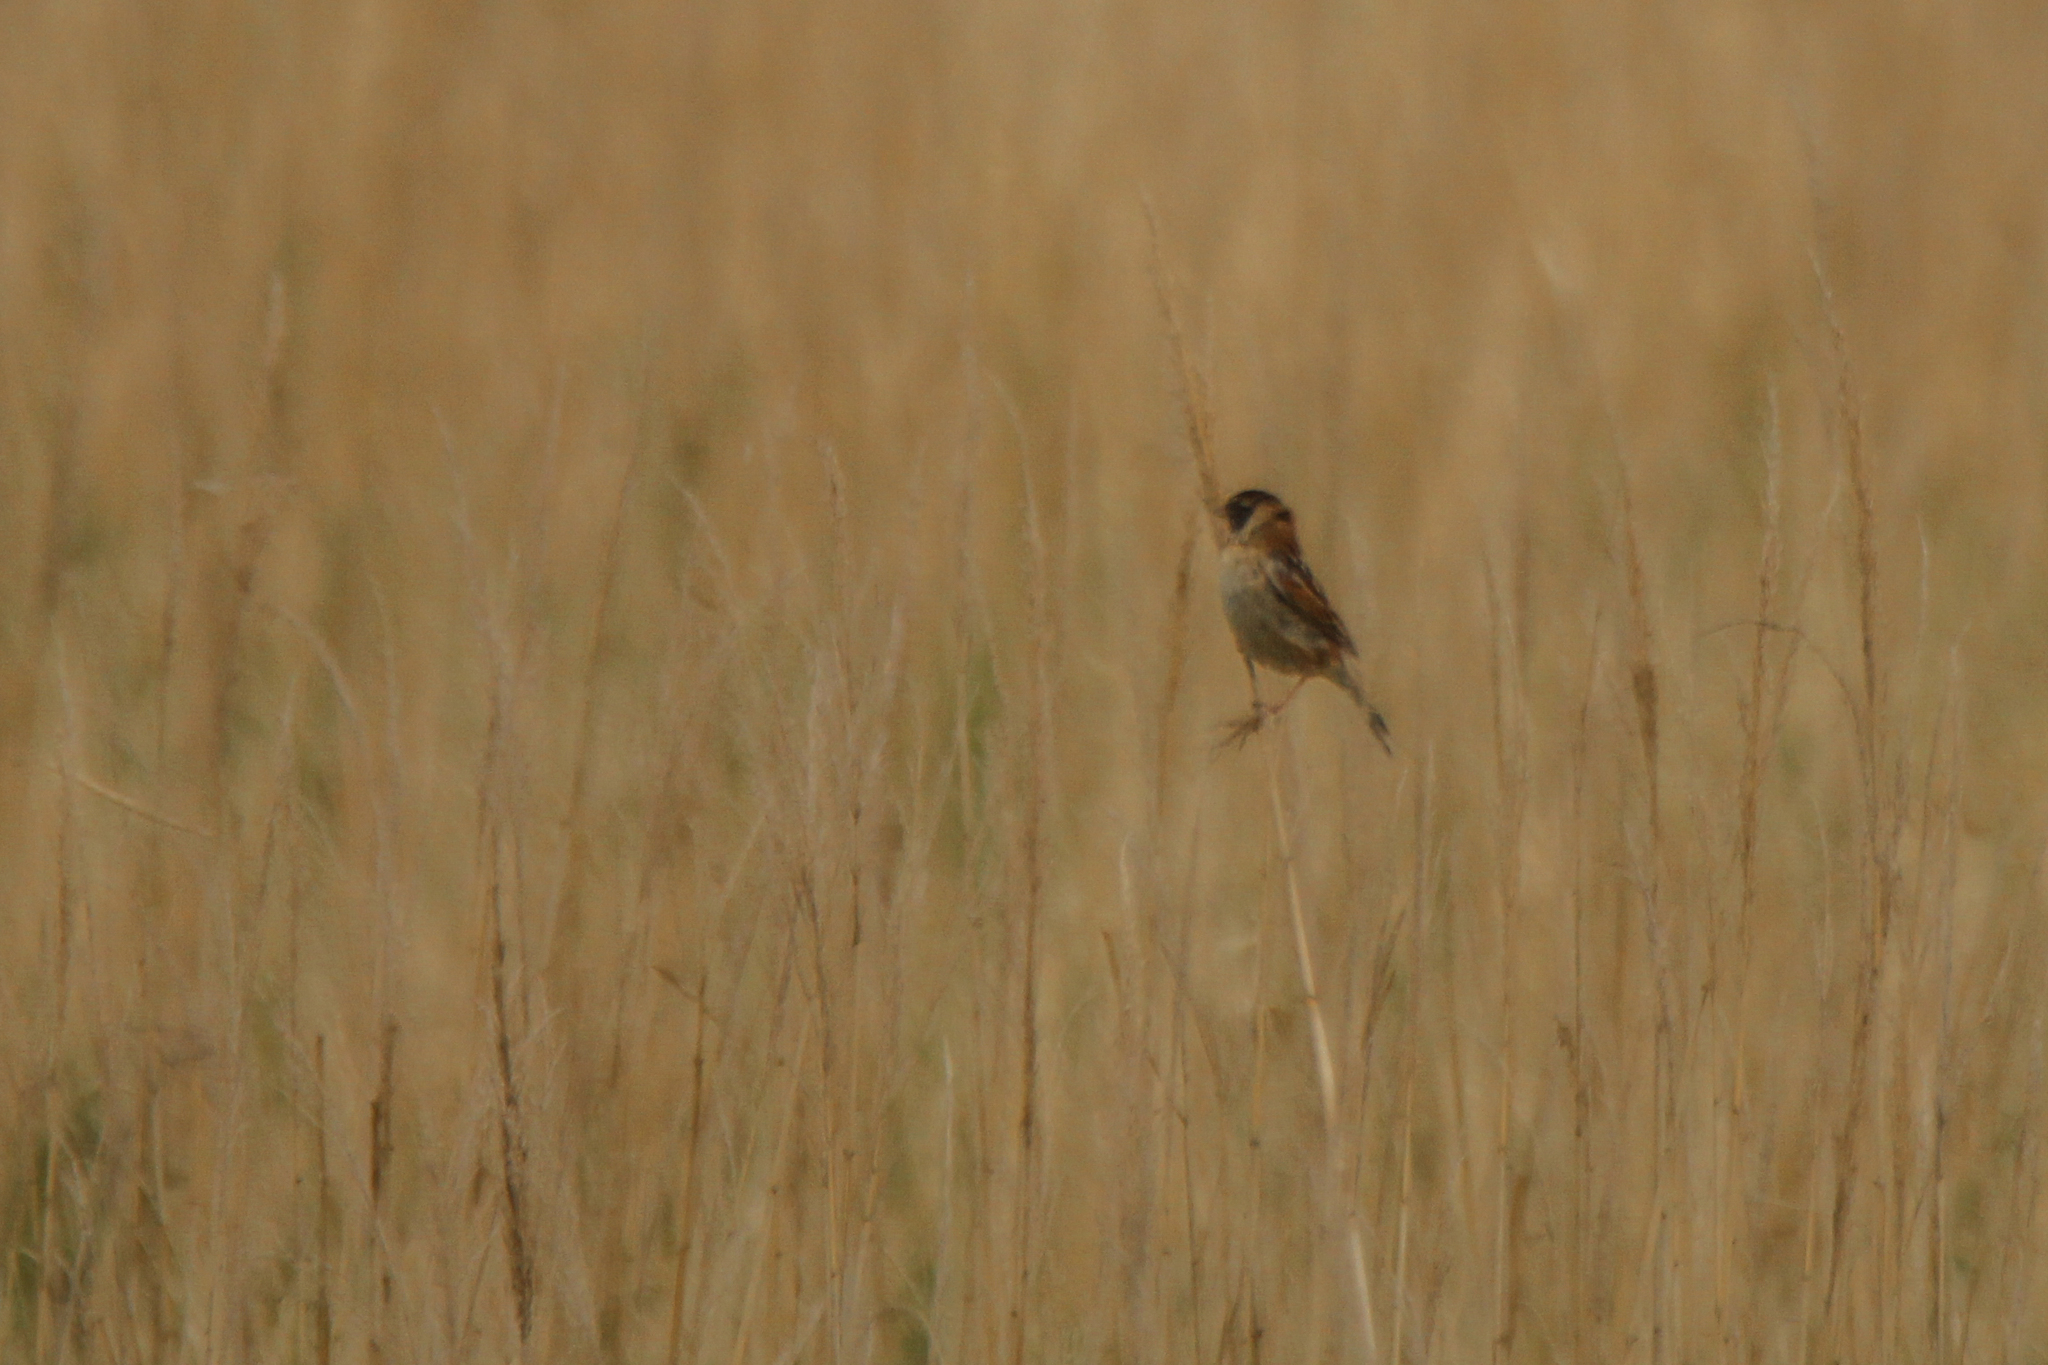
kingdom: Animalia
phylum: Chordata
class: Aves
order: Passeriformes
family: Emberizidae
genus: Emberiza
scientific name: Emberiza yessoensis
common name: Japanese reed bunting
